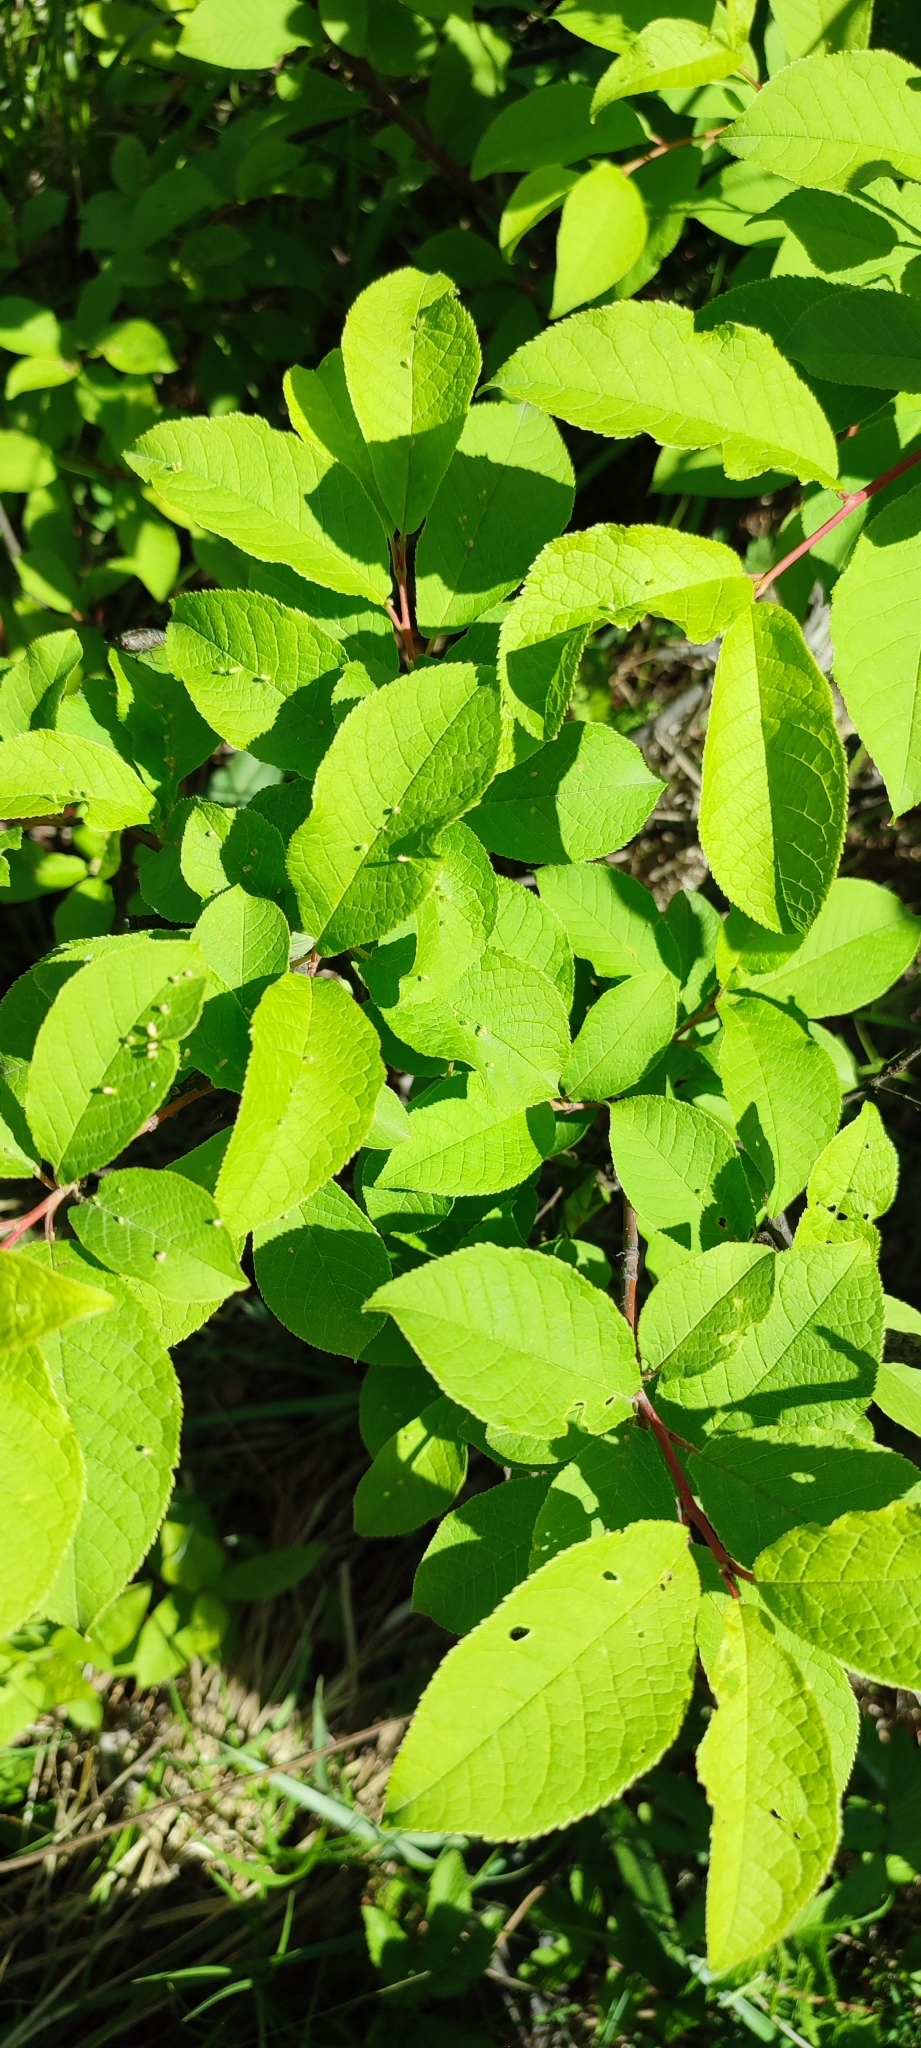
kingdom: Plantae
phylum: Tracheophyta
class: Magnoliopsida
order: Rosales
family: Rosaceae
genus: Prunus
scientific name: Prunus padus
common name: Bird cherry
